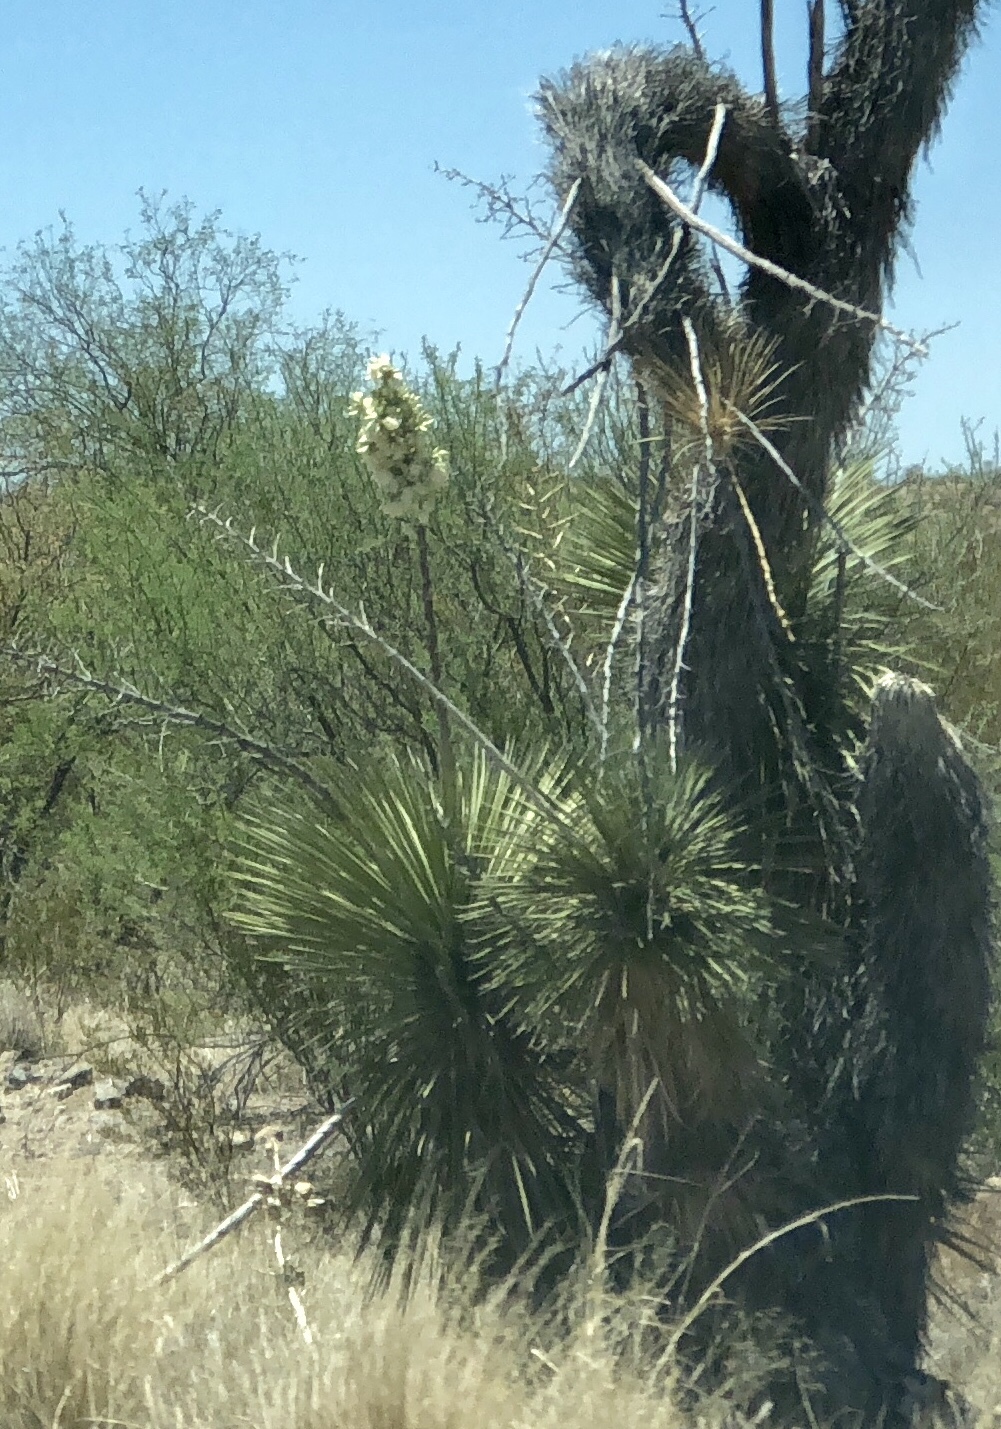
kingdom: Plantae
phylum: Tracheophyta
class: Liliopsida
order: Asparagales
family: Asparagaceae
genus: Yucca
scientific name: Yucca elata
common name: Palmella
